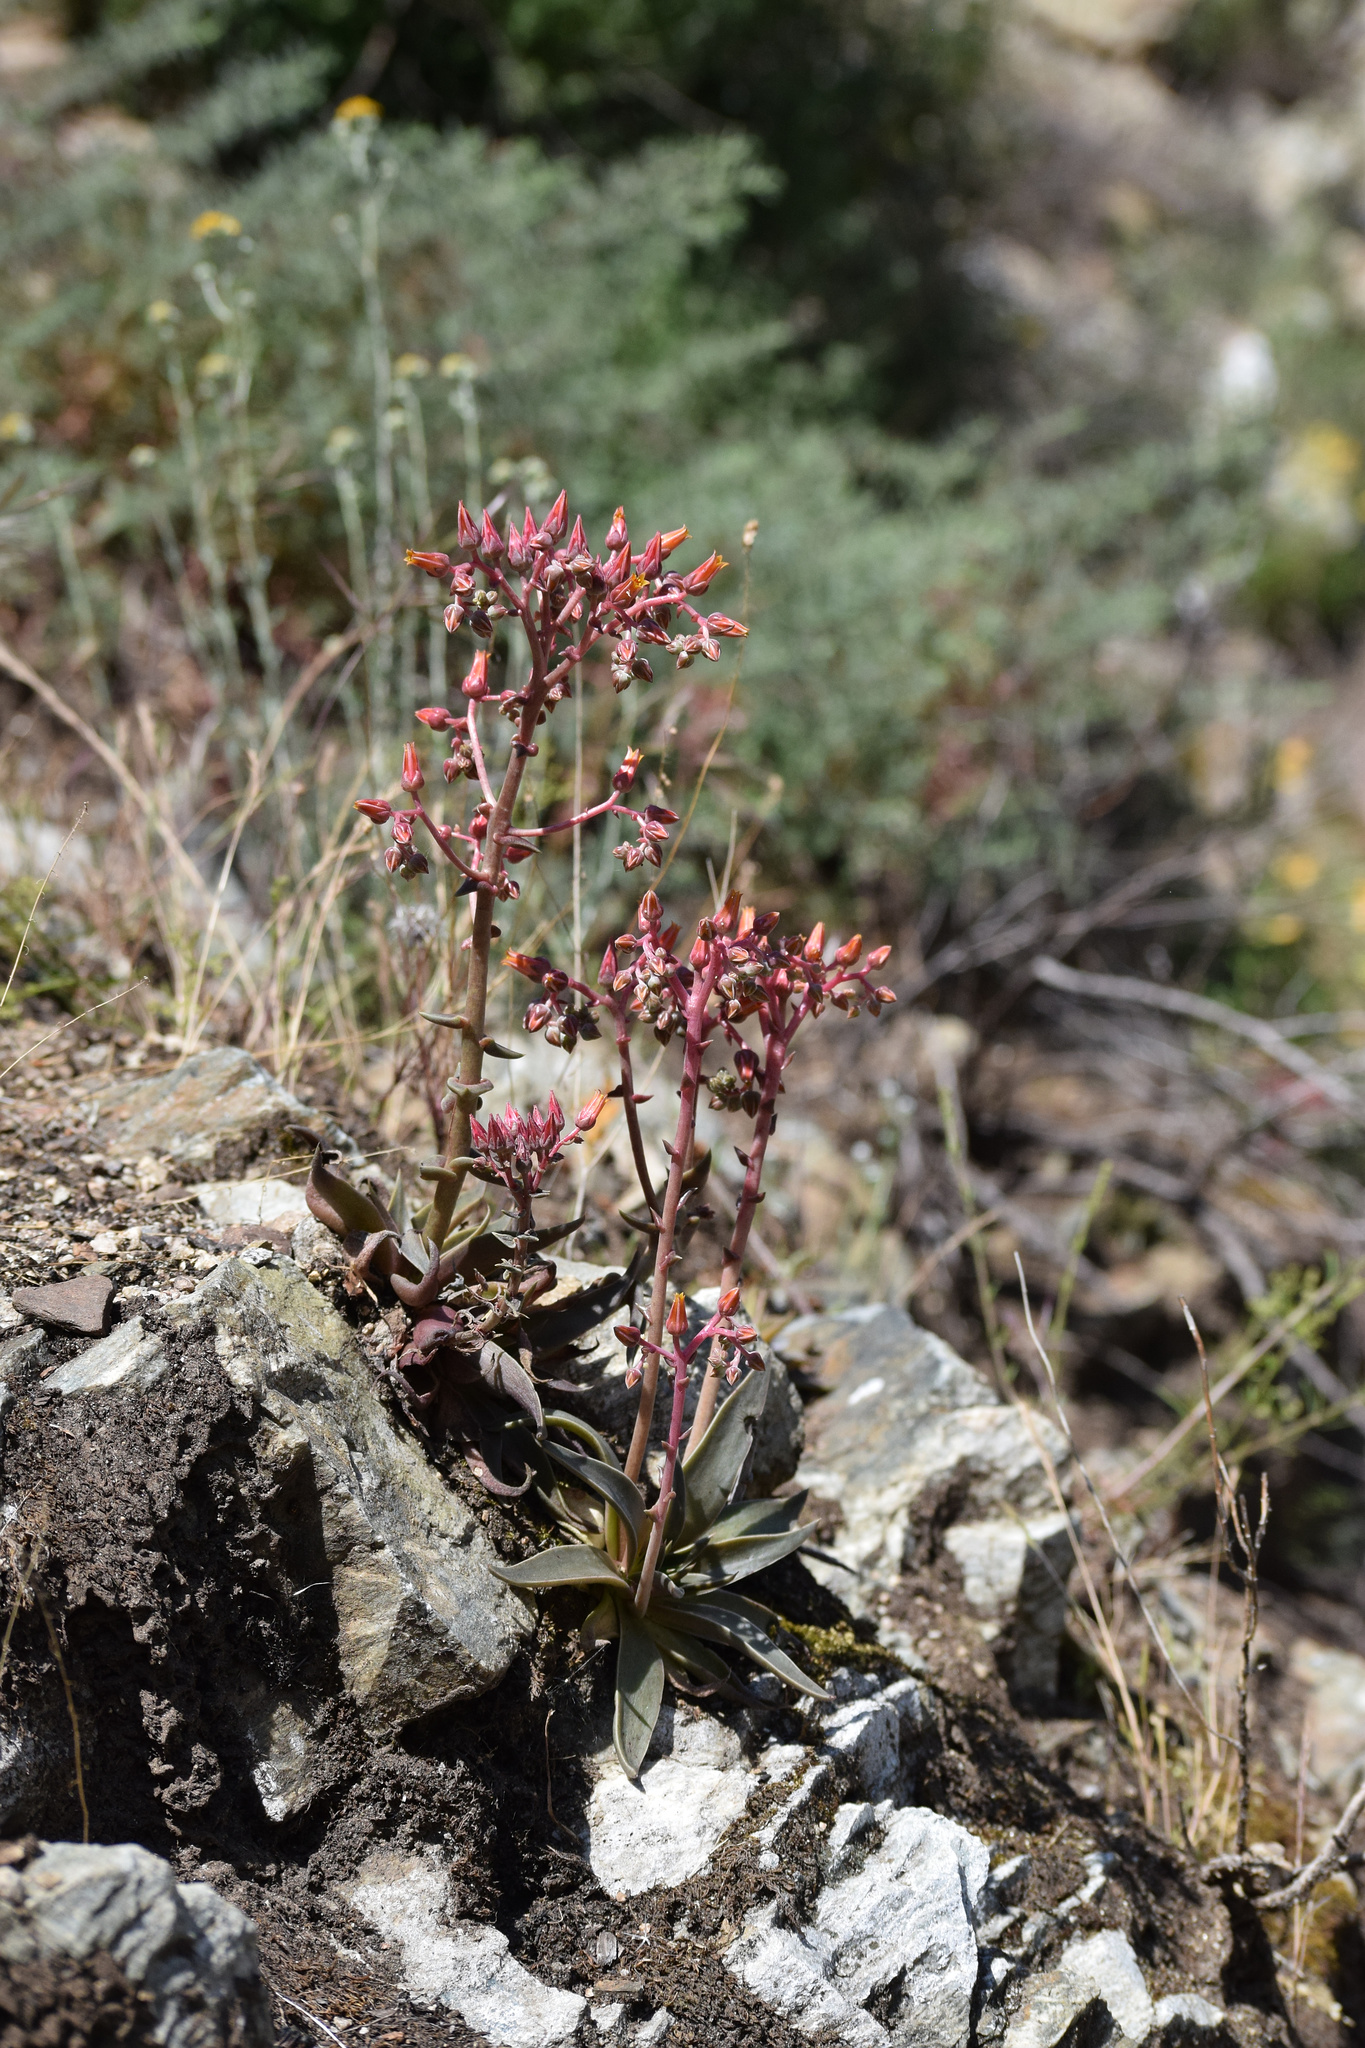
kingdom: Plantae
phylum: Tracheophyta
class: Magnoliopsida
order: Saxifragales
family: Crassulaceae
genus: Dudleya
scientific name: Dudleya lanceolata
